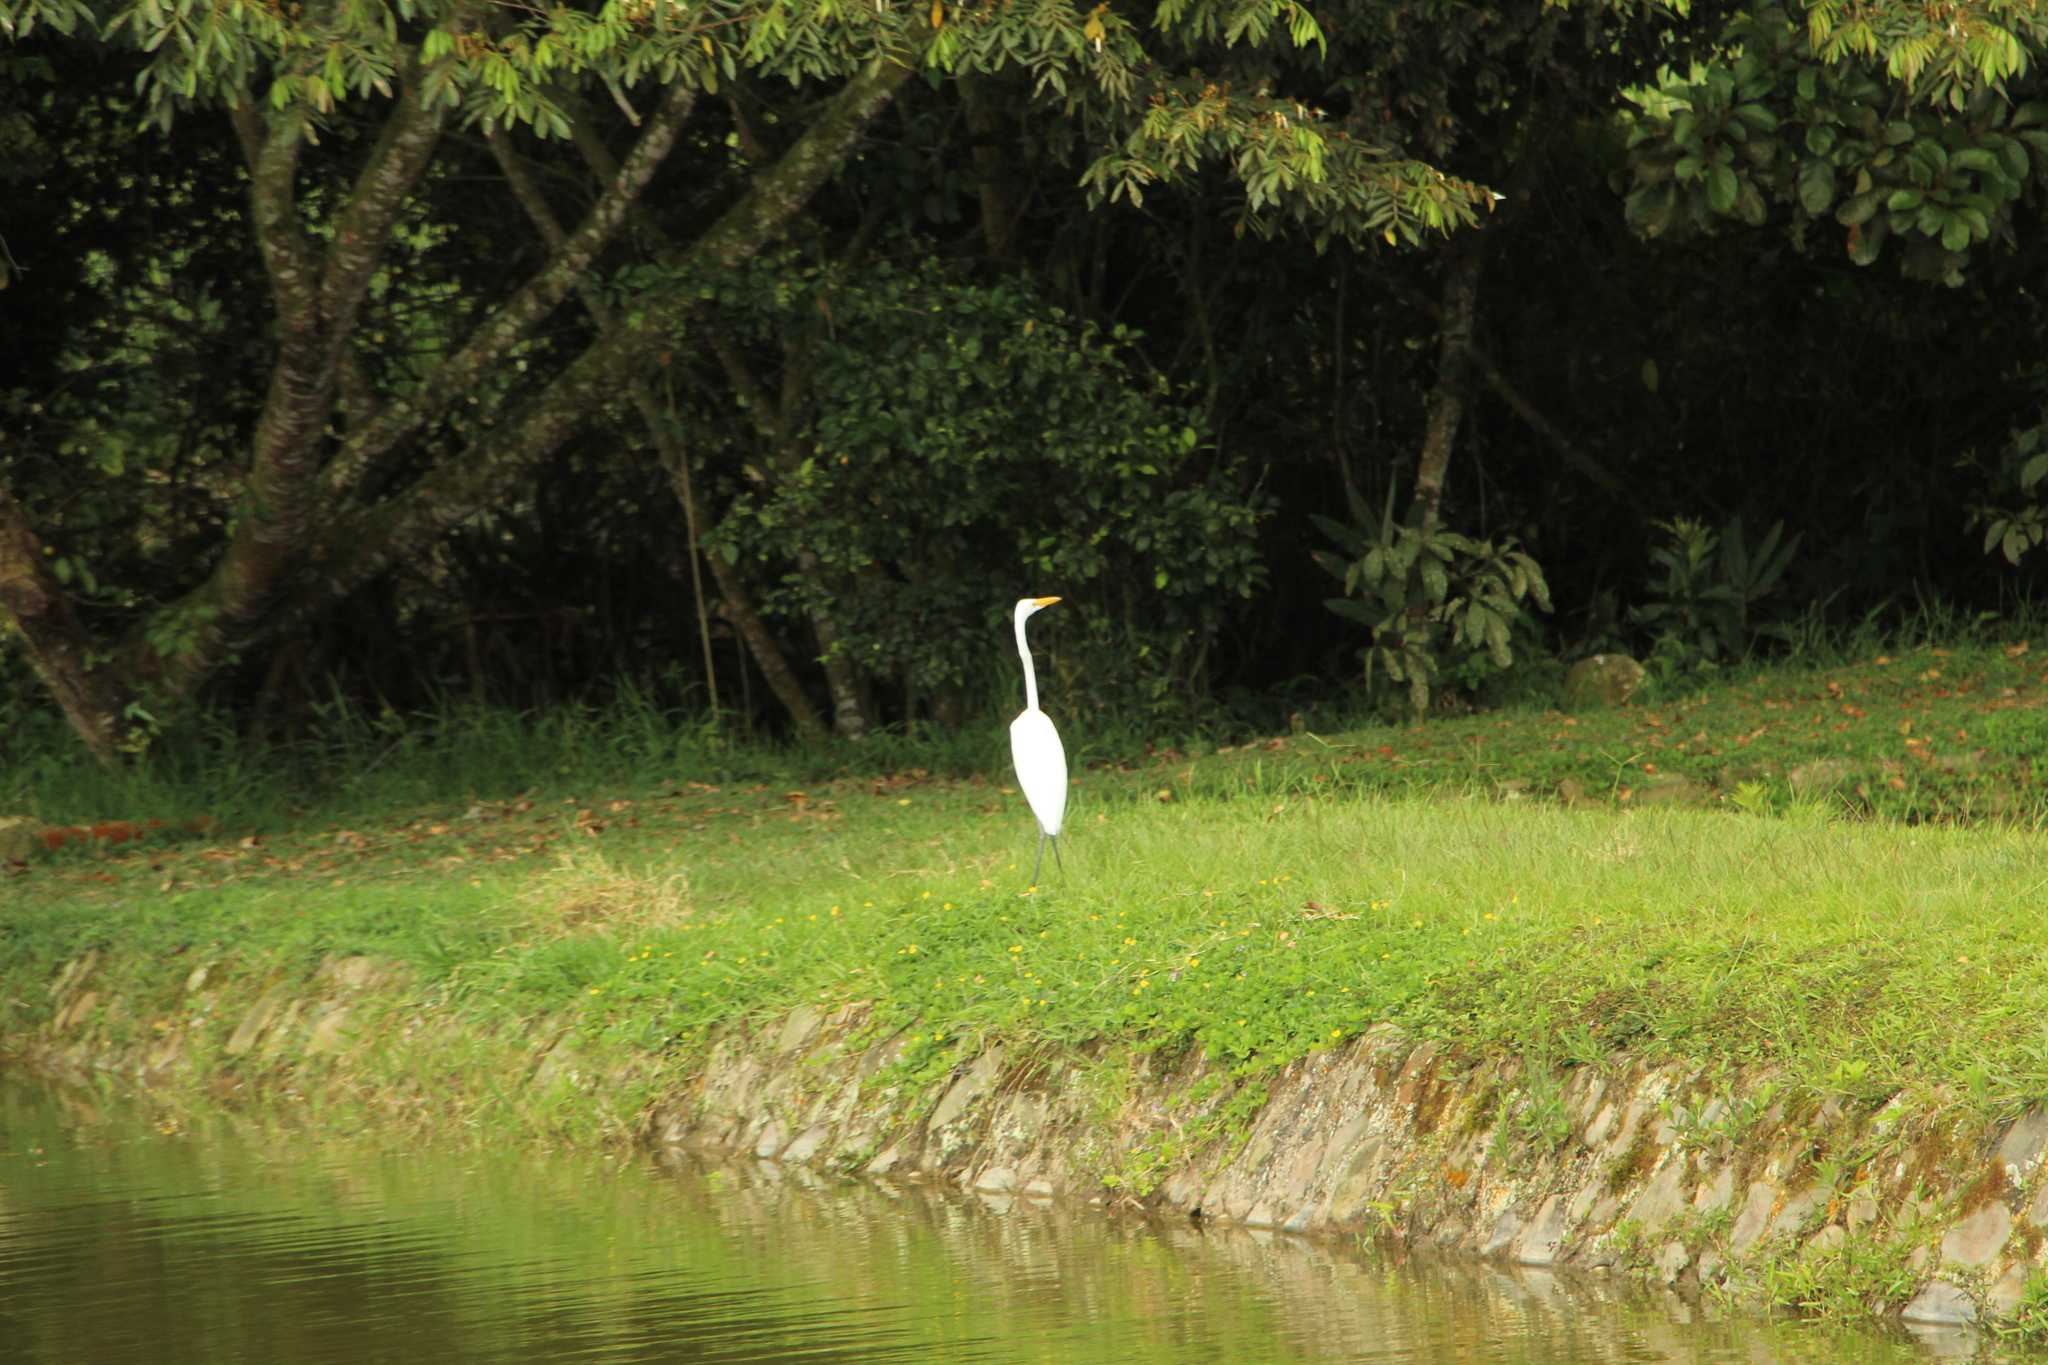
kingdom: Animalia
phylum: Chordata
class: Aves
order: Pelecaniformes
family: Ardeidae
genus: Ardea
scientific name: Ardea alba
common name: Great egret
